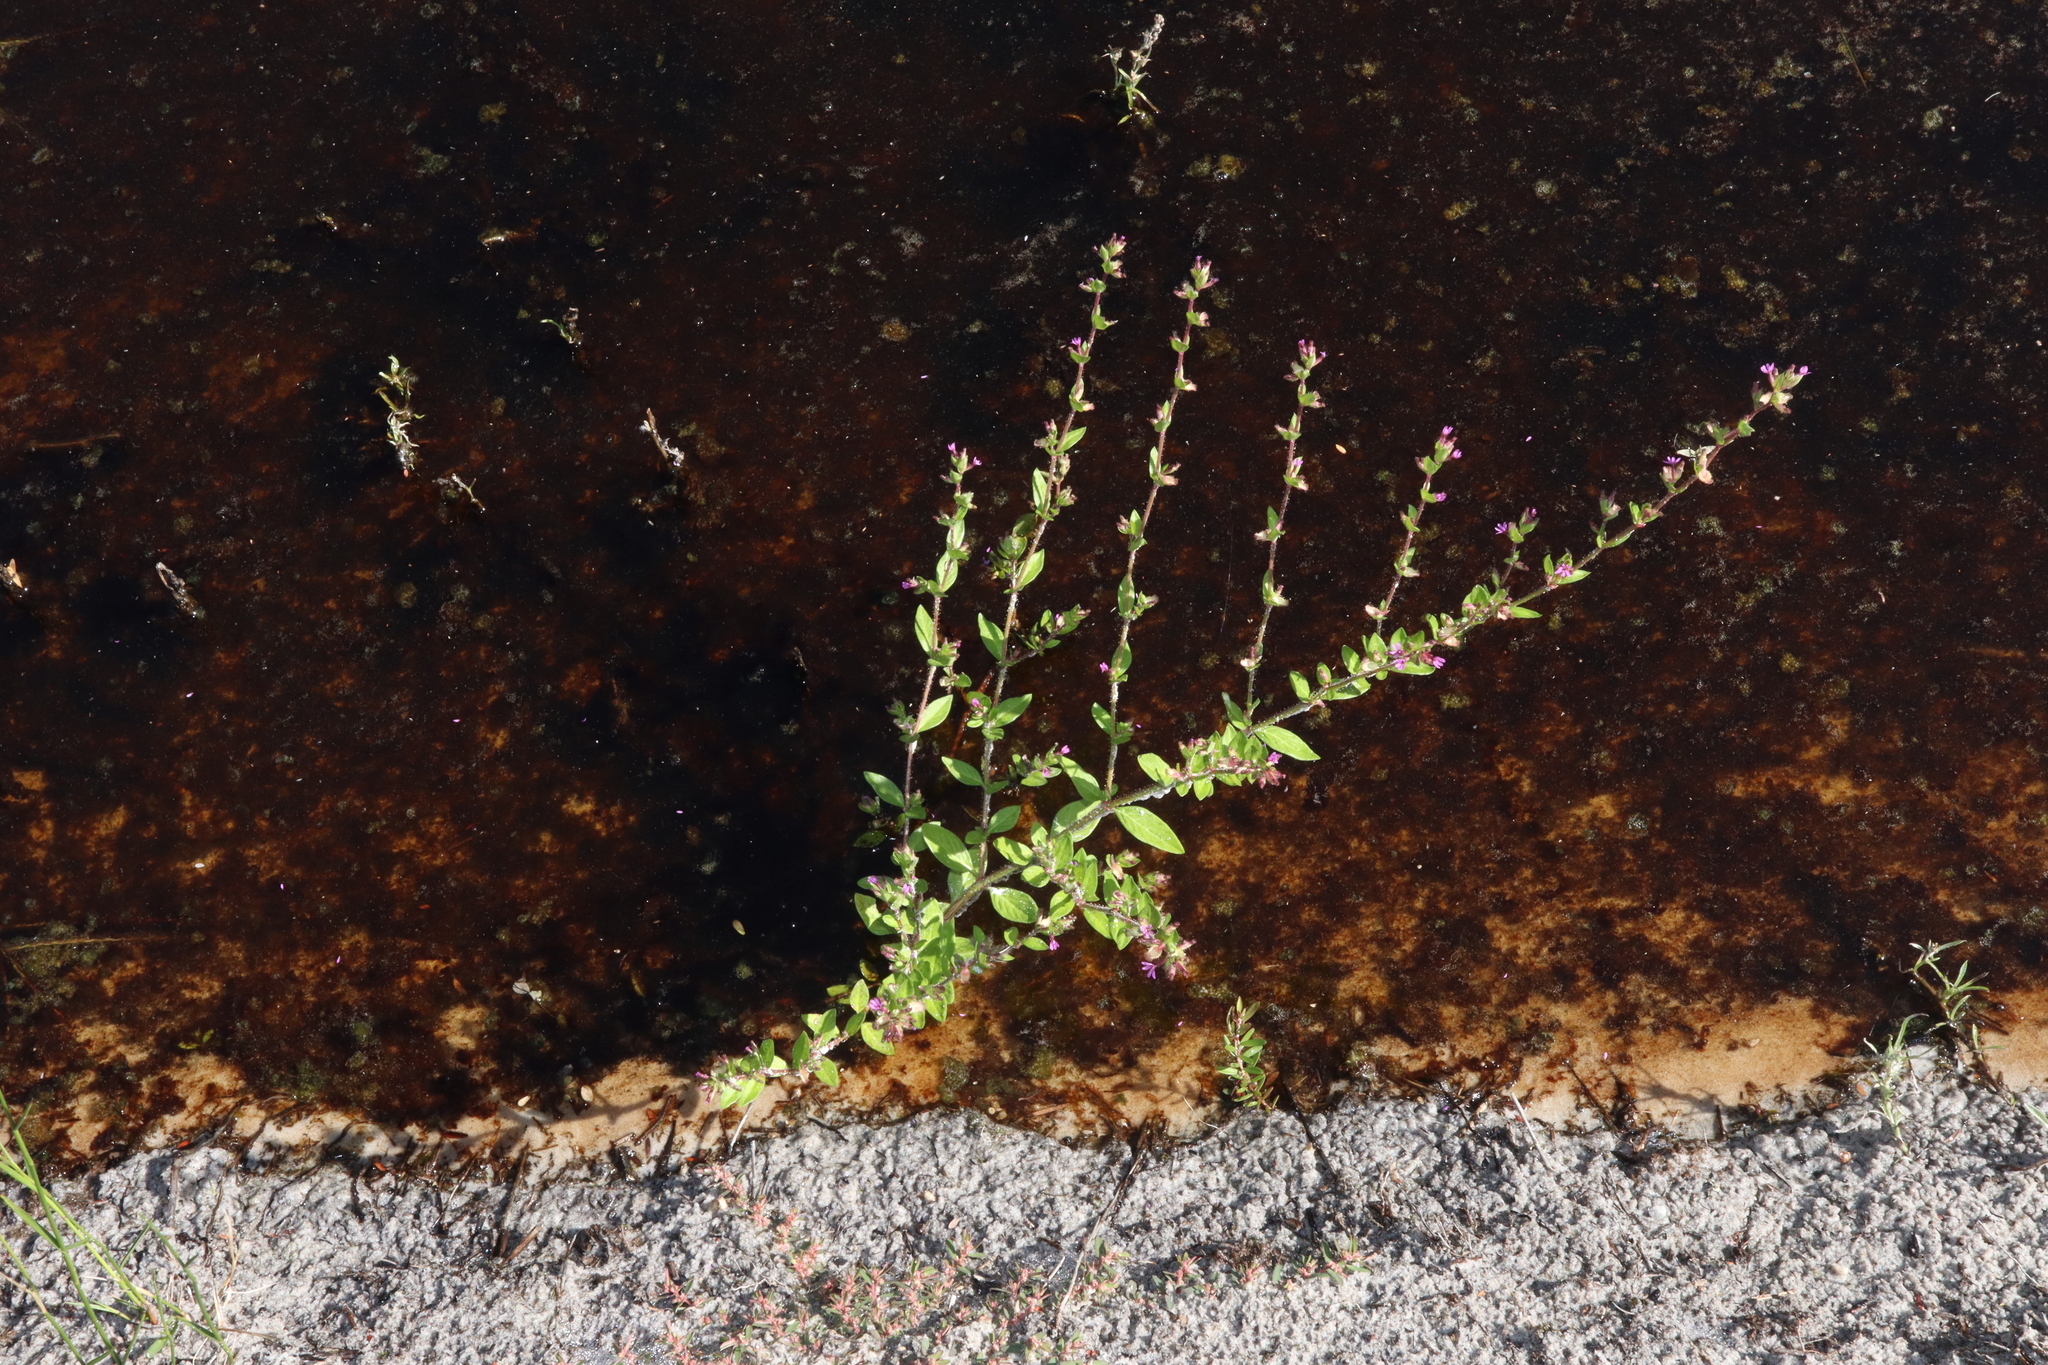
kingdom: Plantae
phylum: Tracheophyta
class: Magnoliopsida
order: Myrtales
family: Lythraceae
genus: Cuphea
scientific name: Cuphea carthagenensis
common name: Colombian waxweed
